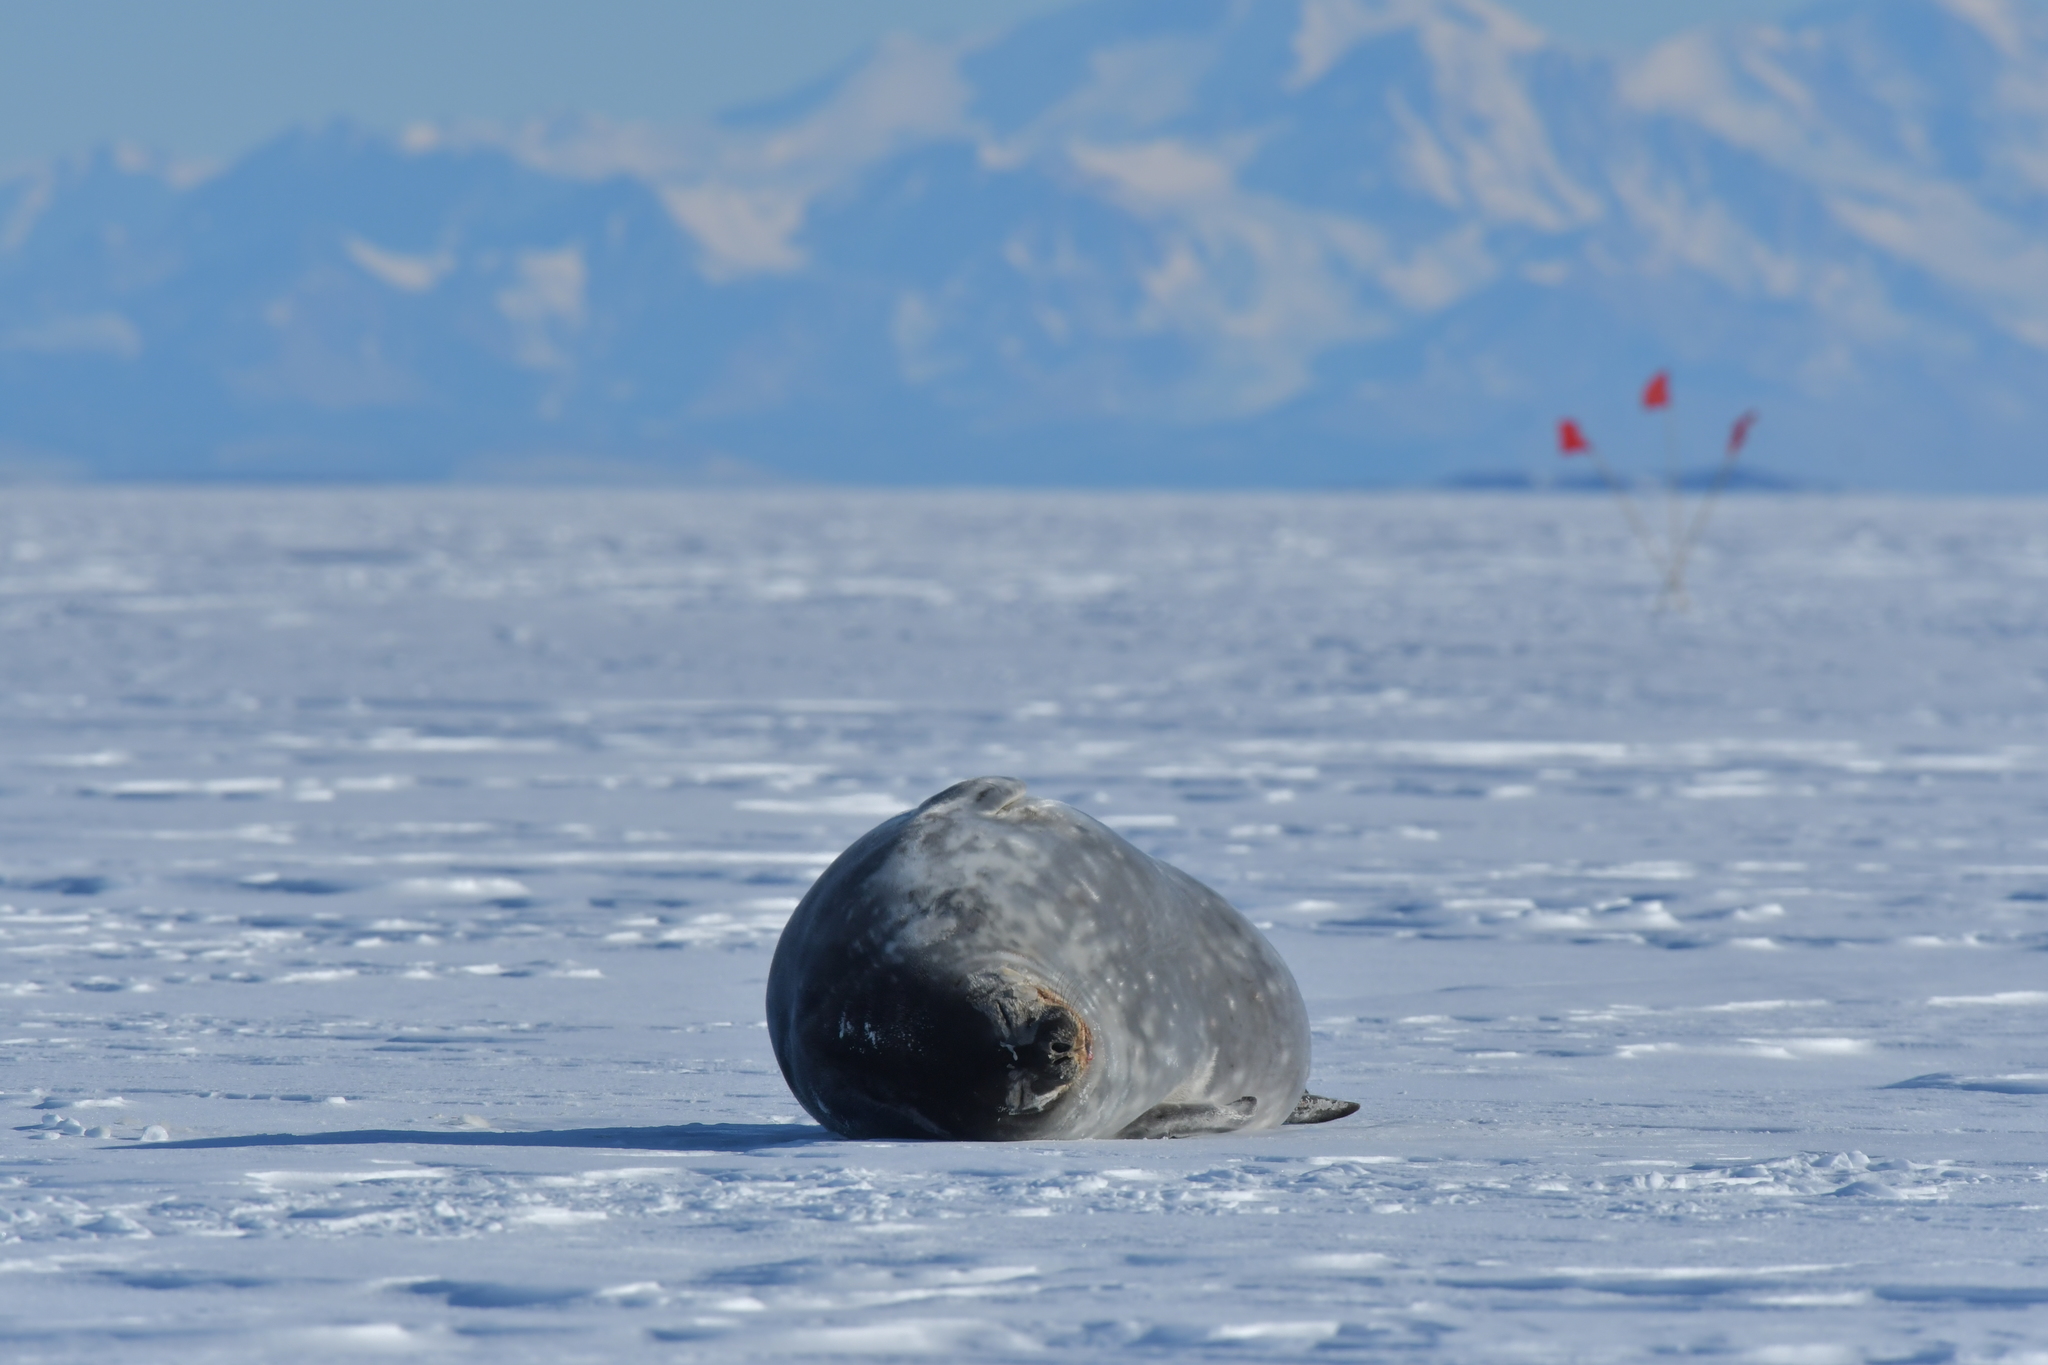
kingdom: Animalia
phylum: Chordata
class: Mammalia
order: Carnivora
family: Phocidae
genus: Leptonychotes
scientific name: Leptonychotes weddellii
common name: Weddell seal
